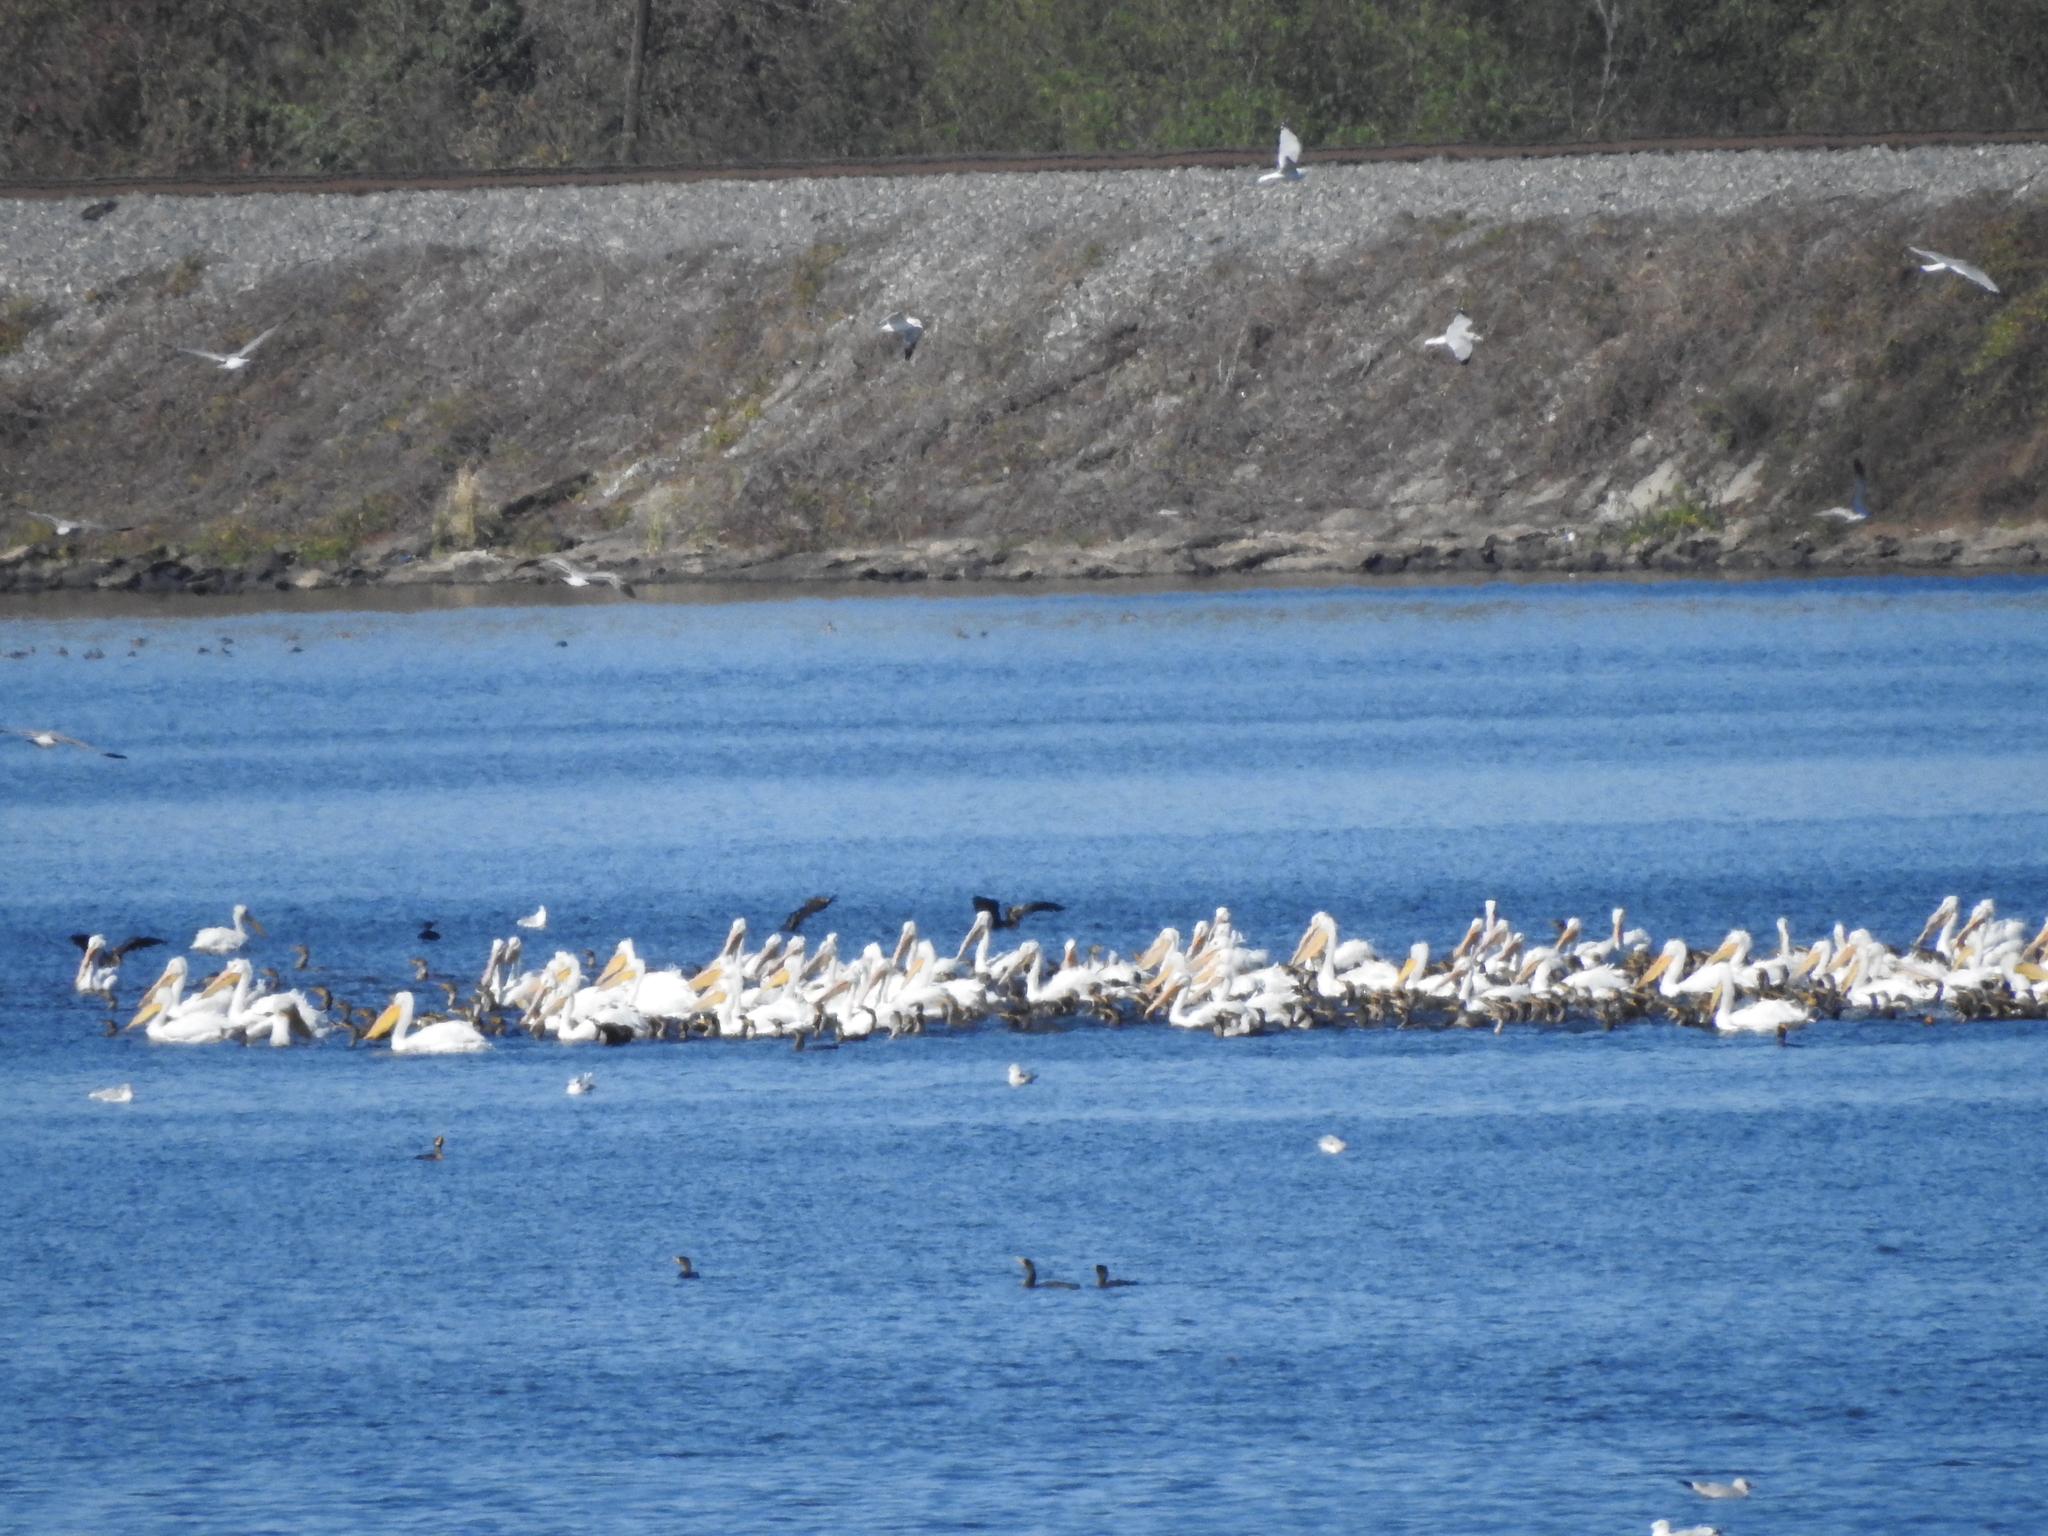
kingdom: Animalia
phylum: Chordata
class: Aves
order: Pelecaniformes
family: Pelecanidae
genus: Pelecanus
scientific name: Pelecanus erythrorhynchos
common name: American white pelican
